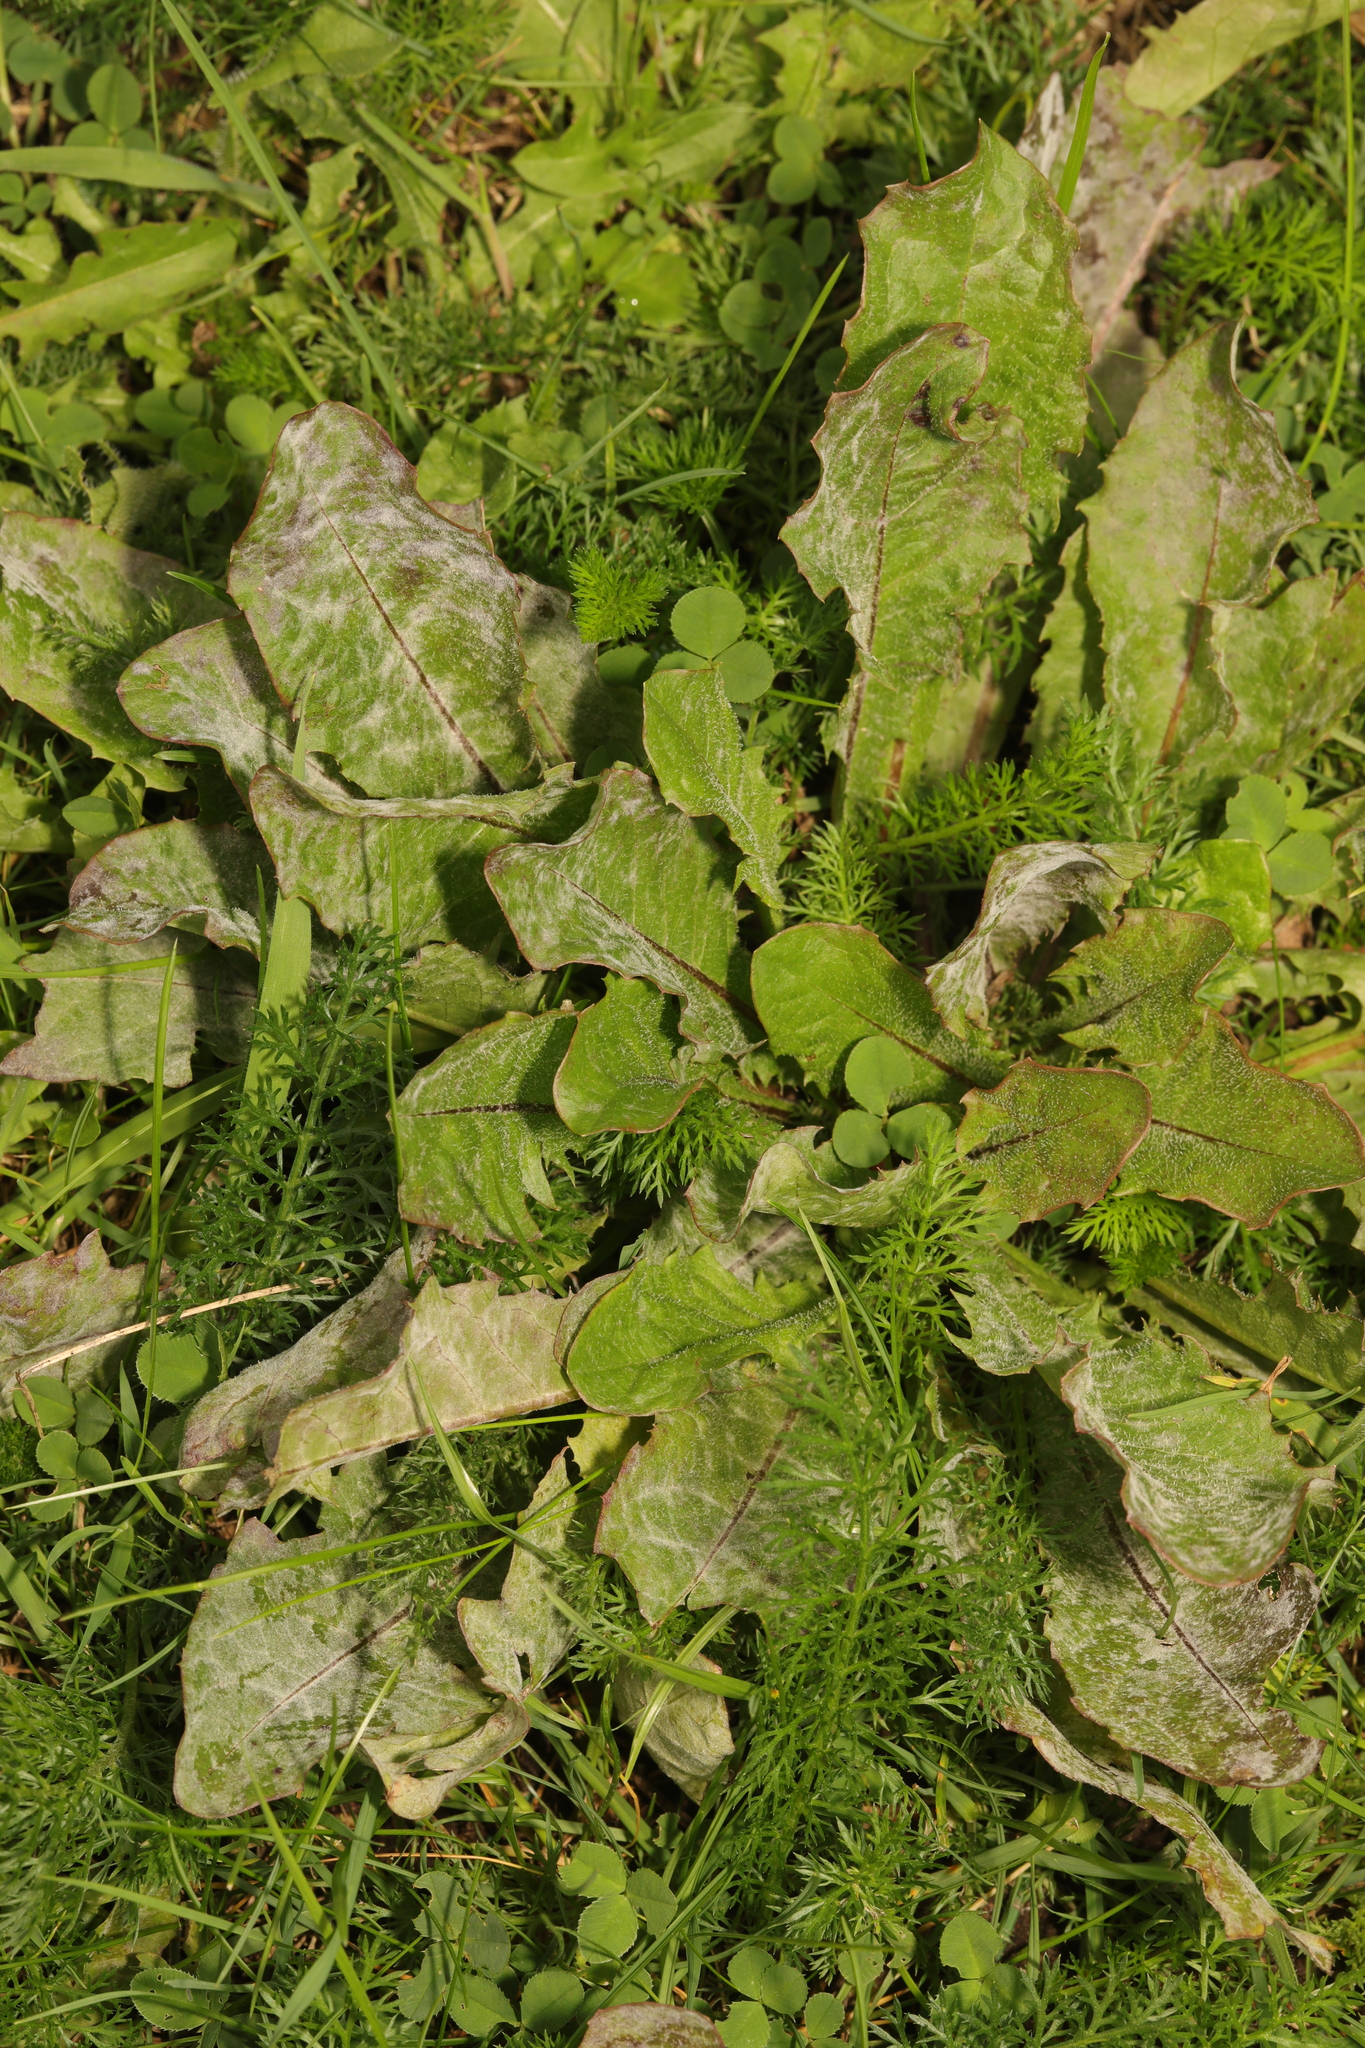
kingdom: Plantae
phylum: Tracheophyta
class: Magnoliopsida
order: Asterales
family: Asteraceae
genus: Taraxacum
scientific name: Taraxacum officinale
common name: Common dandelion
